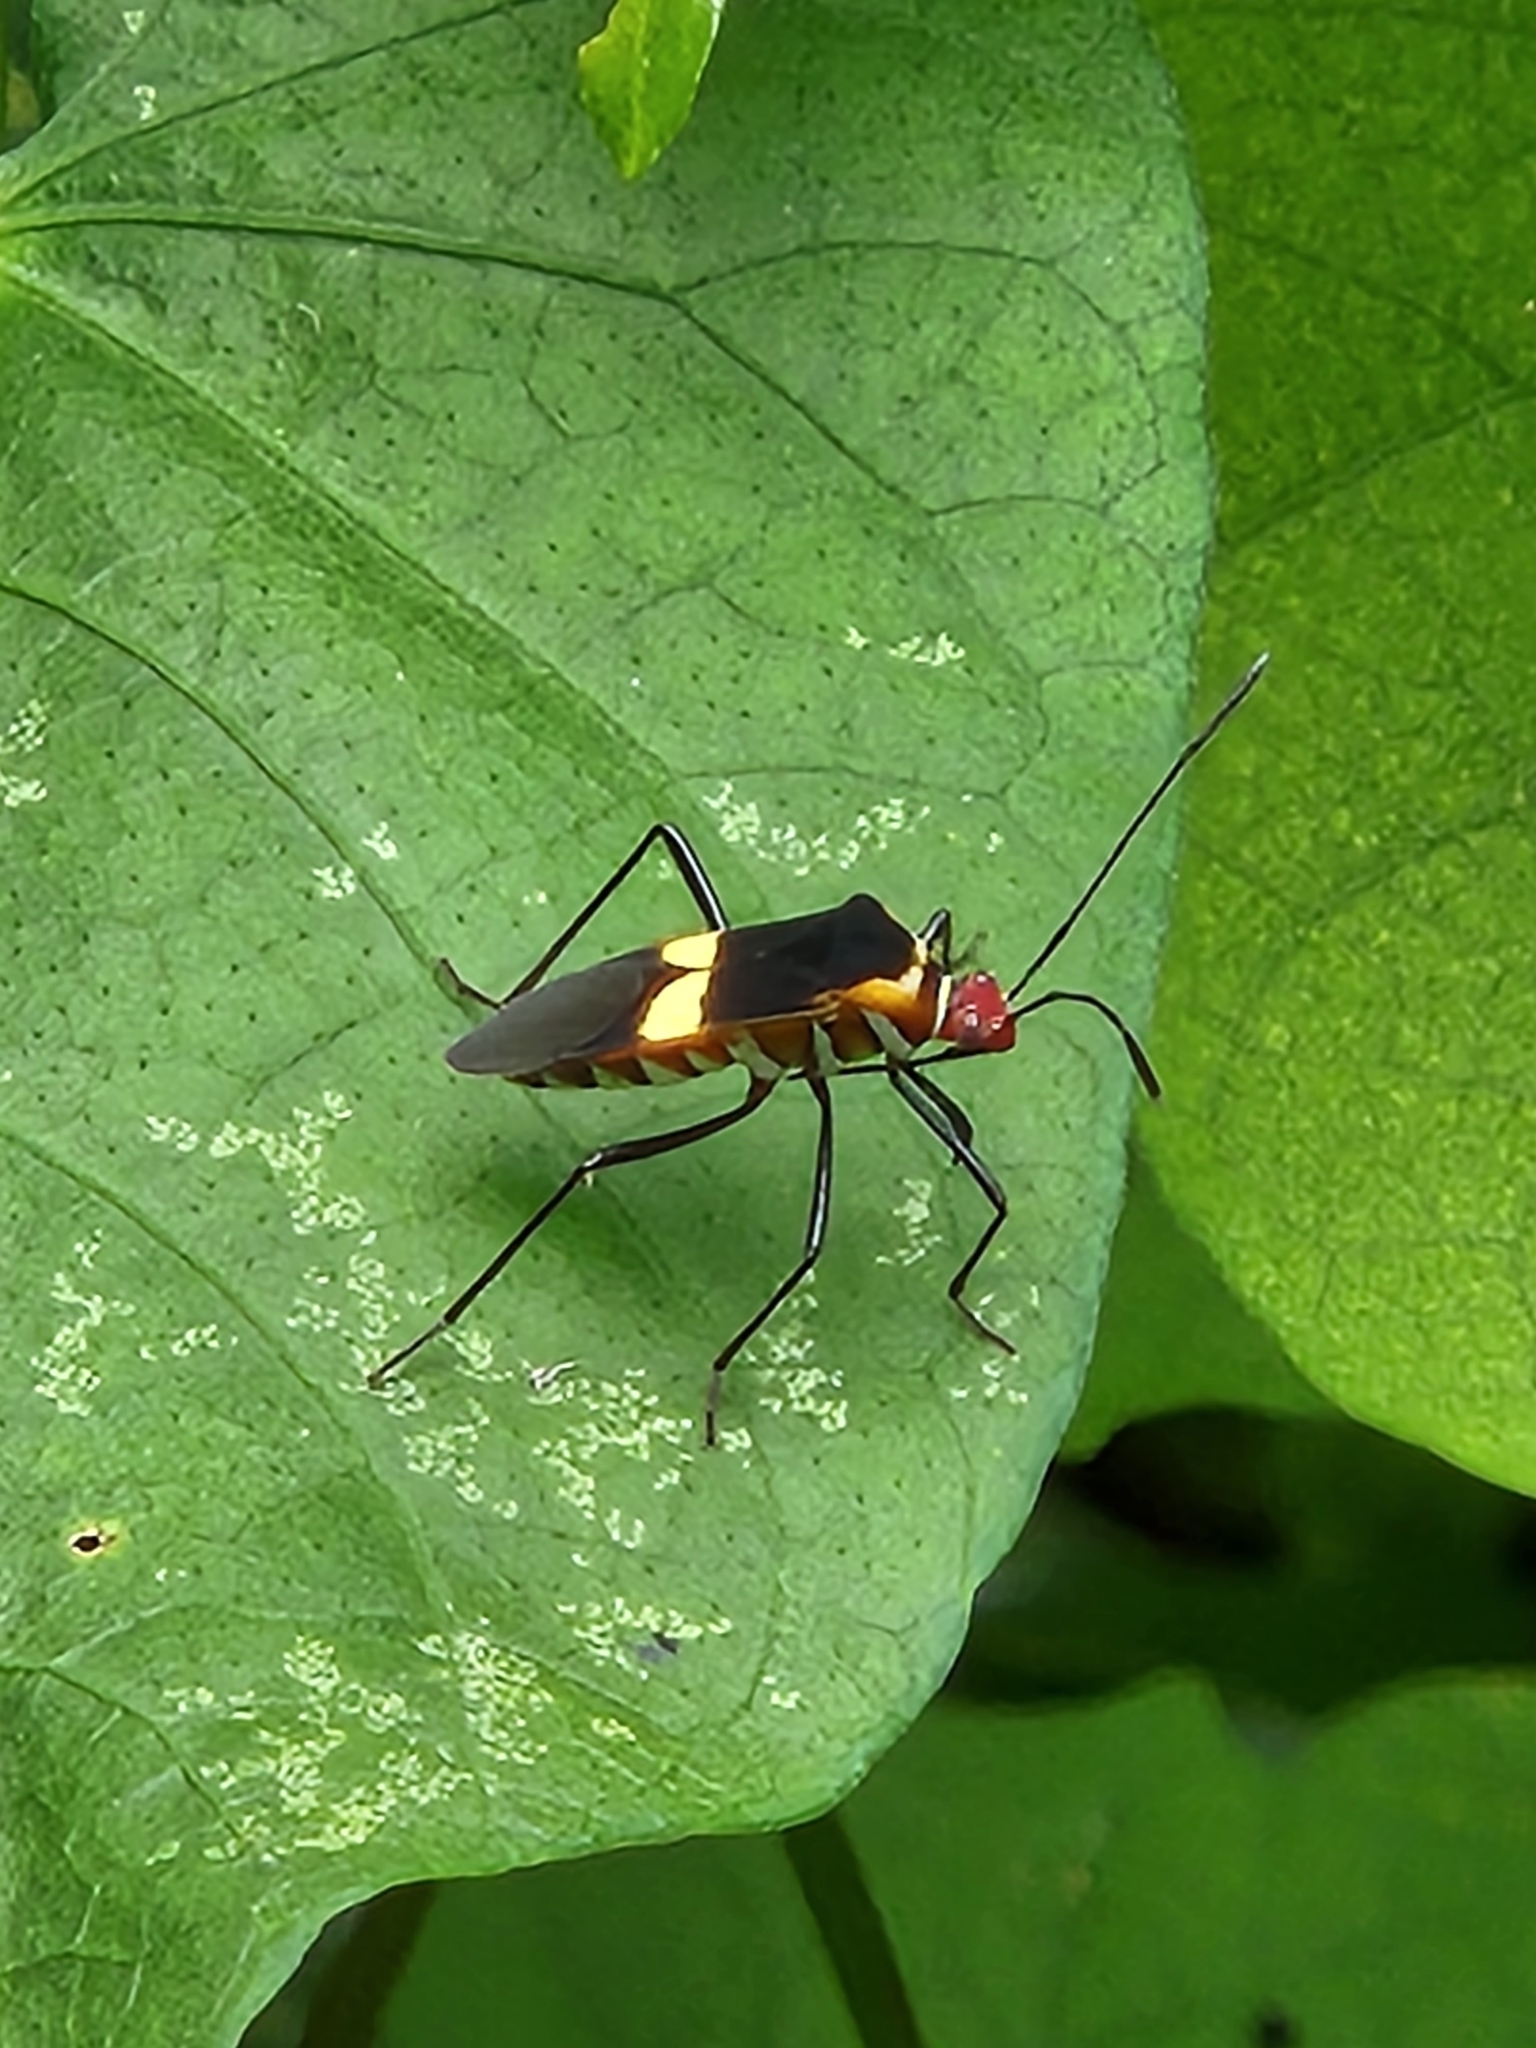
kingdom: Animalia
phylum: Arthropoda
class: Insecta
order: Hemiptera
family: Coreidae
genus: Hypselonotus
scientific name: Hypselonotus interruptus
